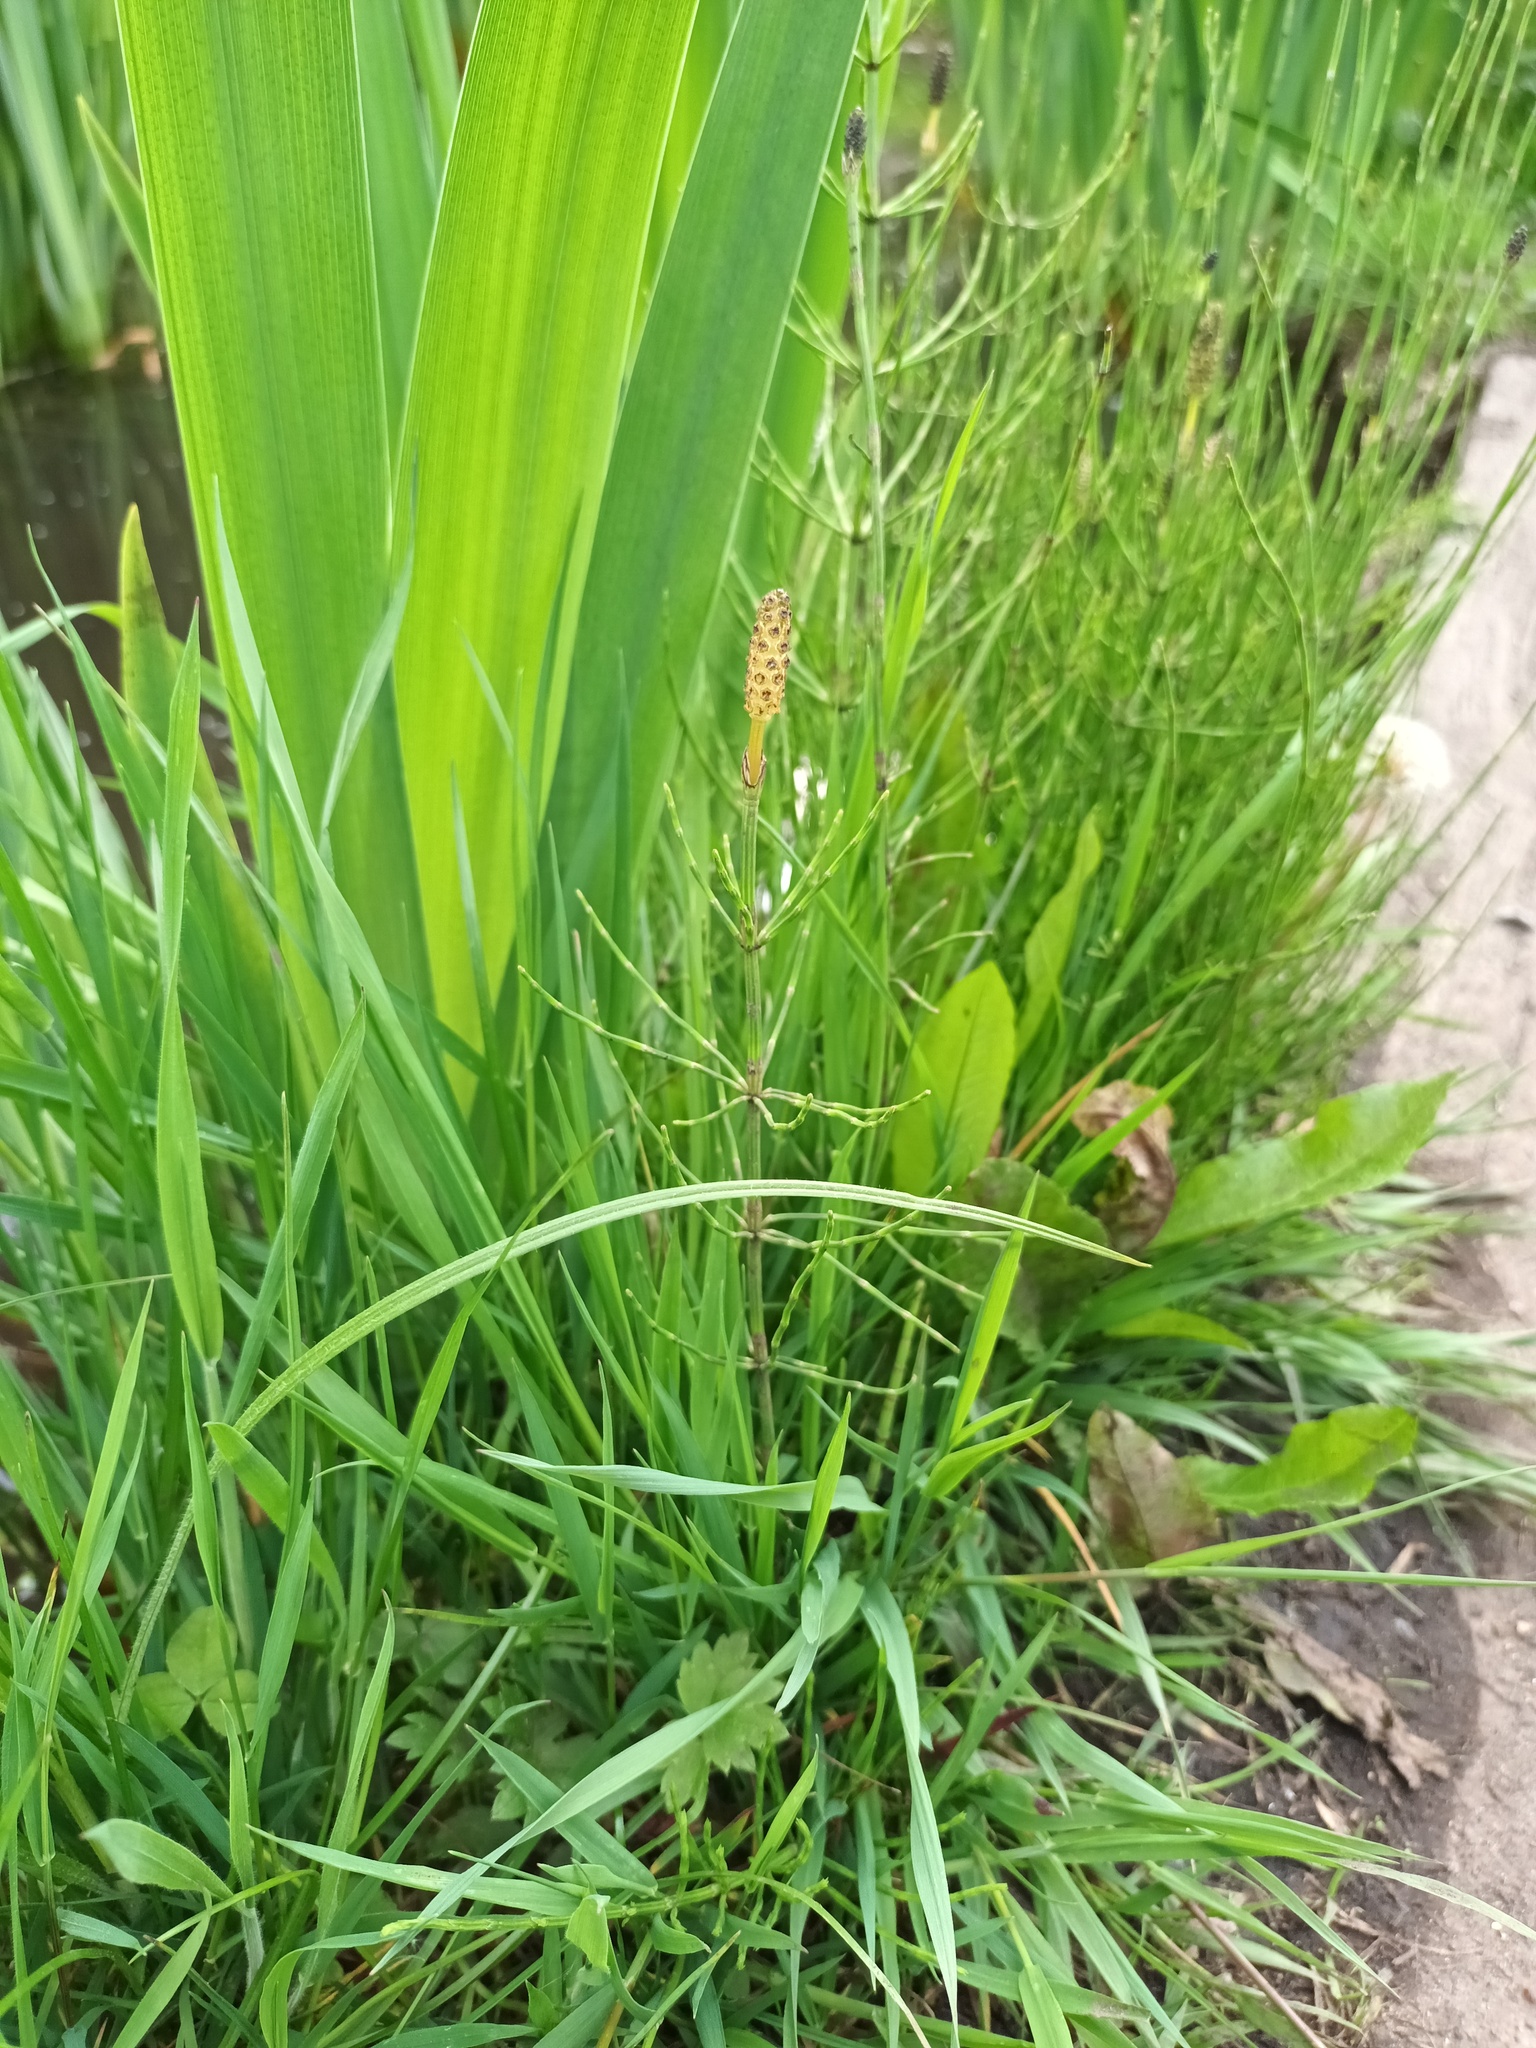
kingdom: Plantae
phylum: Tracheophyta
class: Polypodiopsida
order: Equisetales
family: Equisetaceae
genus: Equisetum
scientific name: Equisetum palustre
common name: Marsh horsetail
